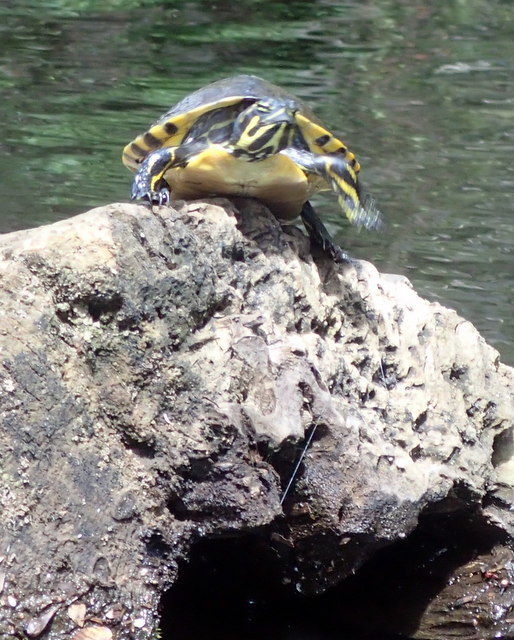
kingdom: Animalia
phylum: Chordata
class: Testudines
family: Emydidae
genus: Pseudemys
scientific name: Pseudemys concinna
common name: Eastern river cooter
